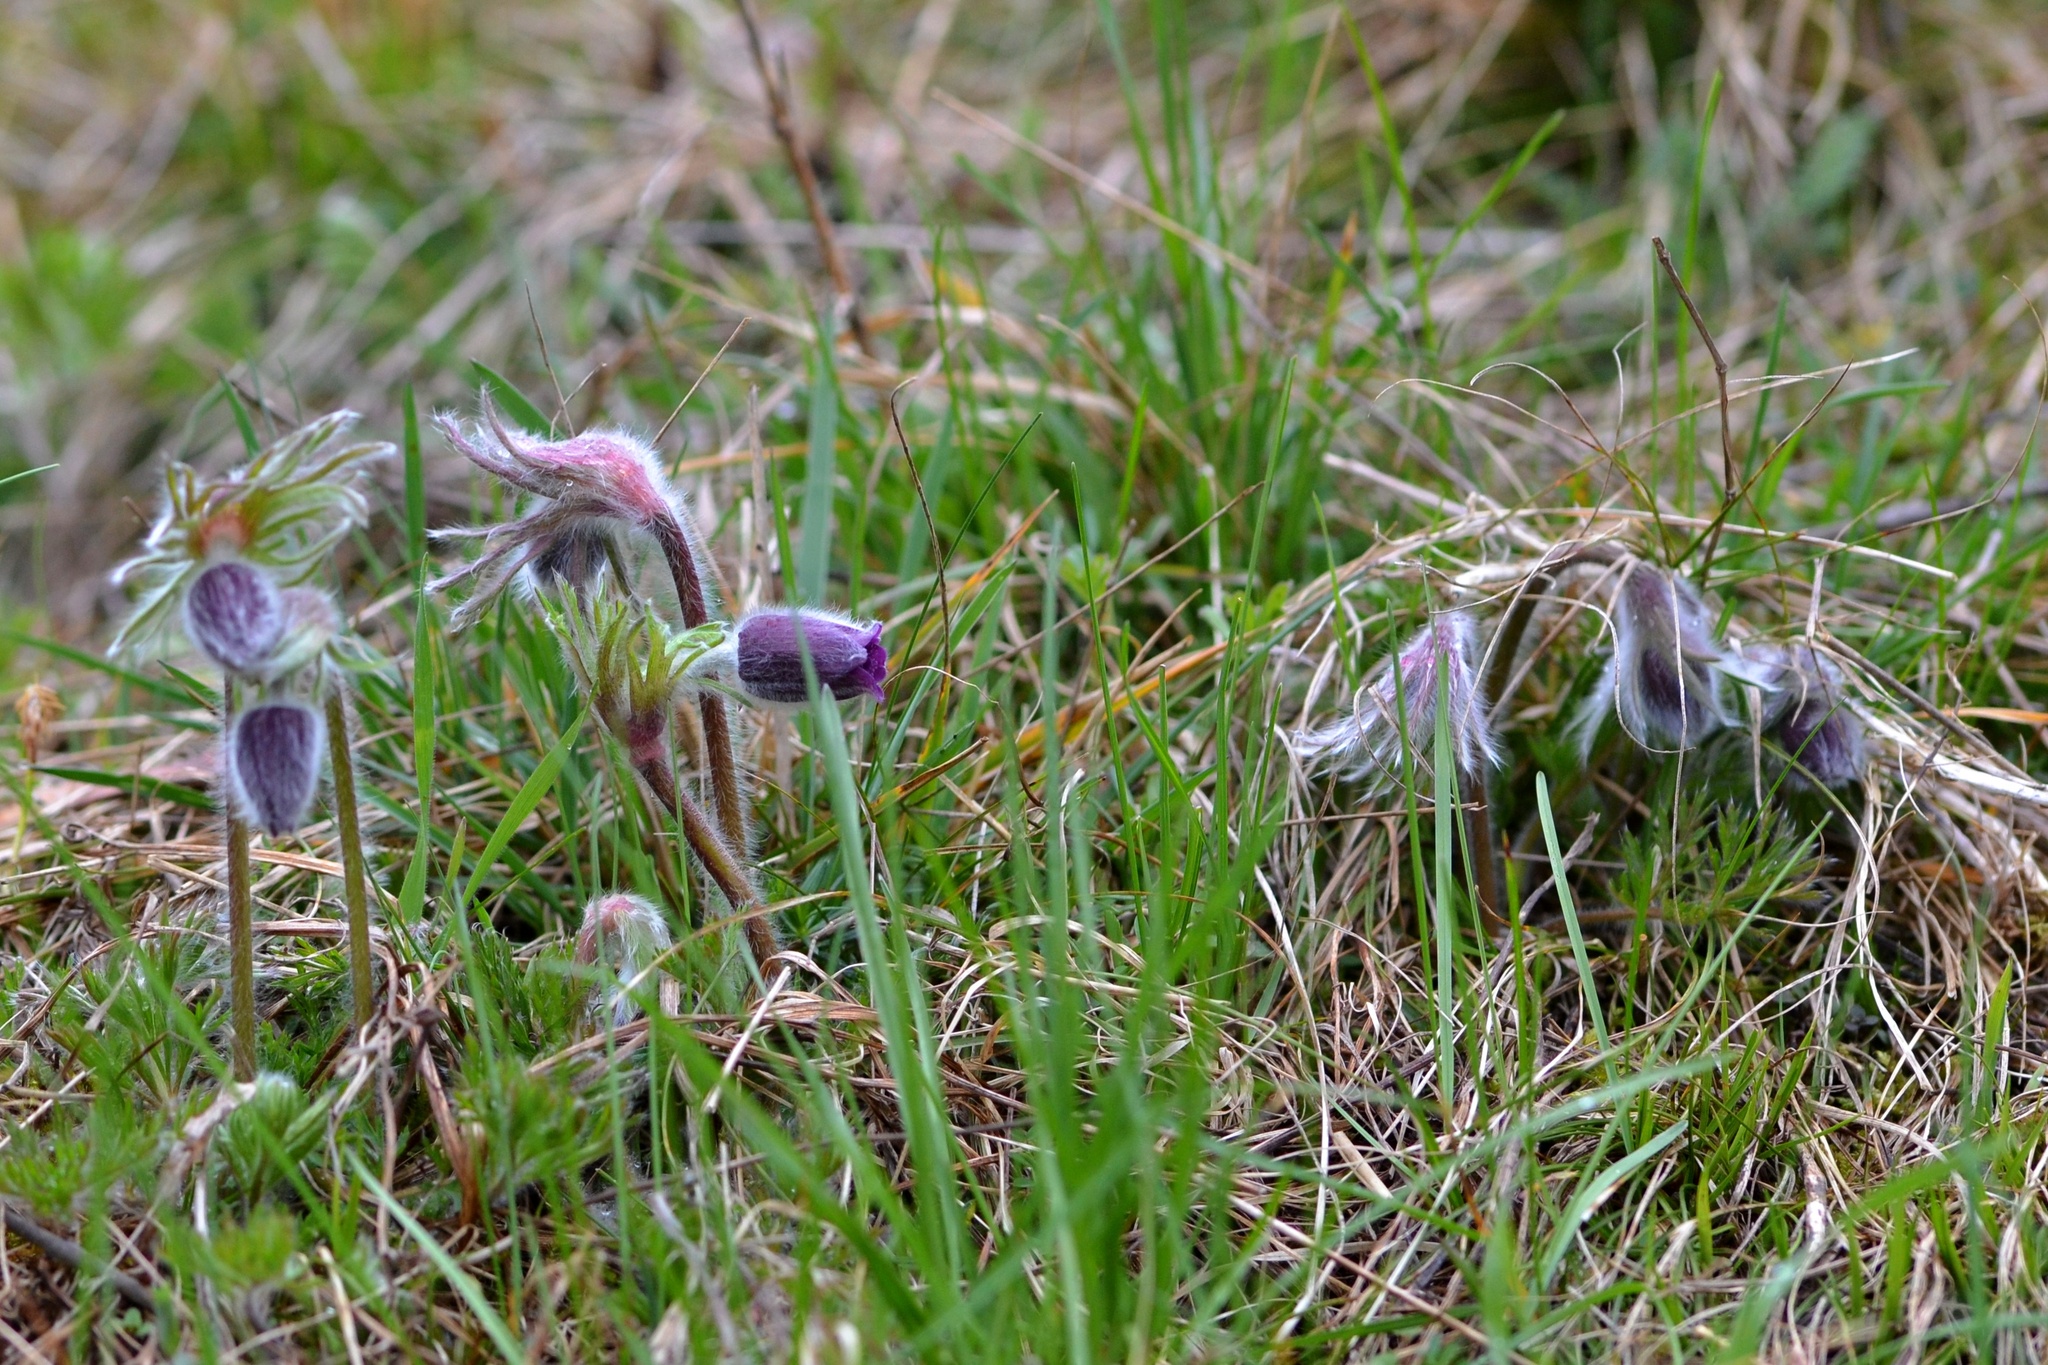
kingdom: Plantae
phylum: Tracheophyta
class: Magnoliopsida
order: Ranunculales
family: Ranunculaceae
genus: Pulsatilla
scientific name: Pulsatilla pratensis
